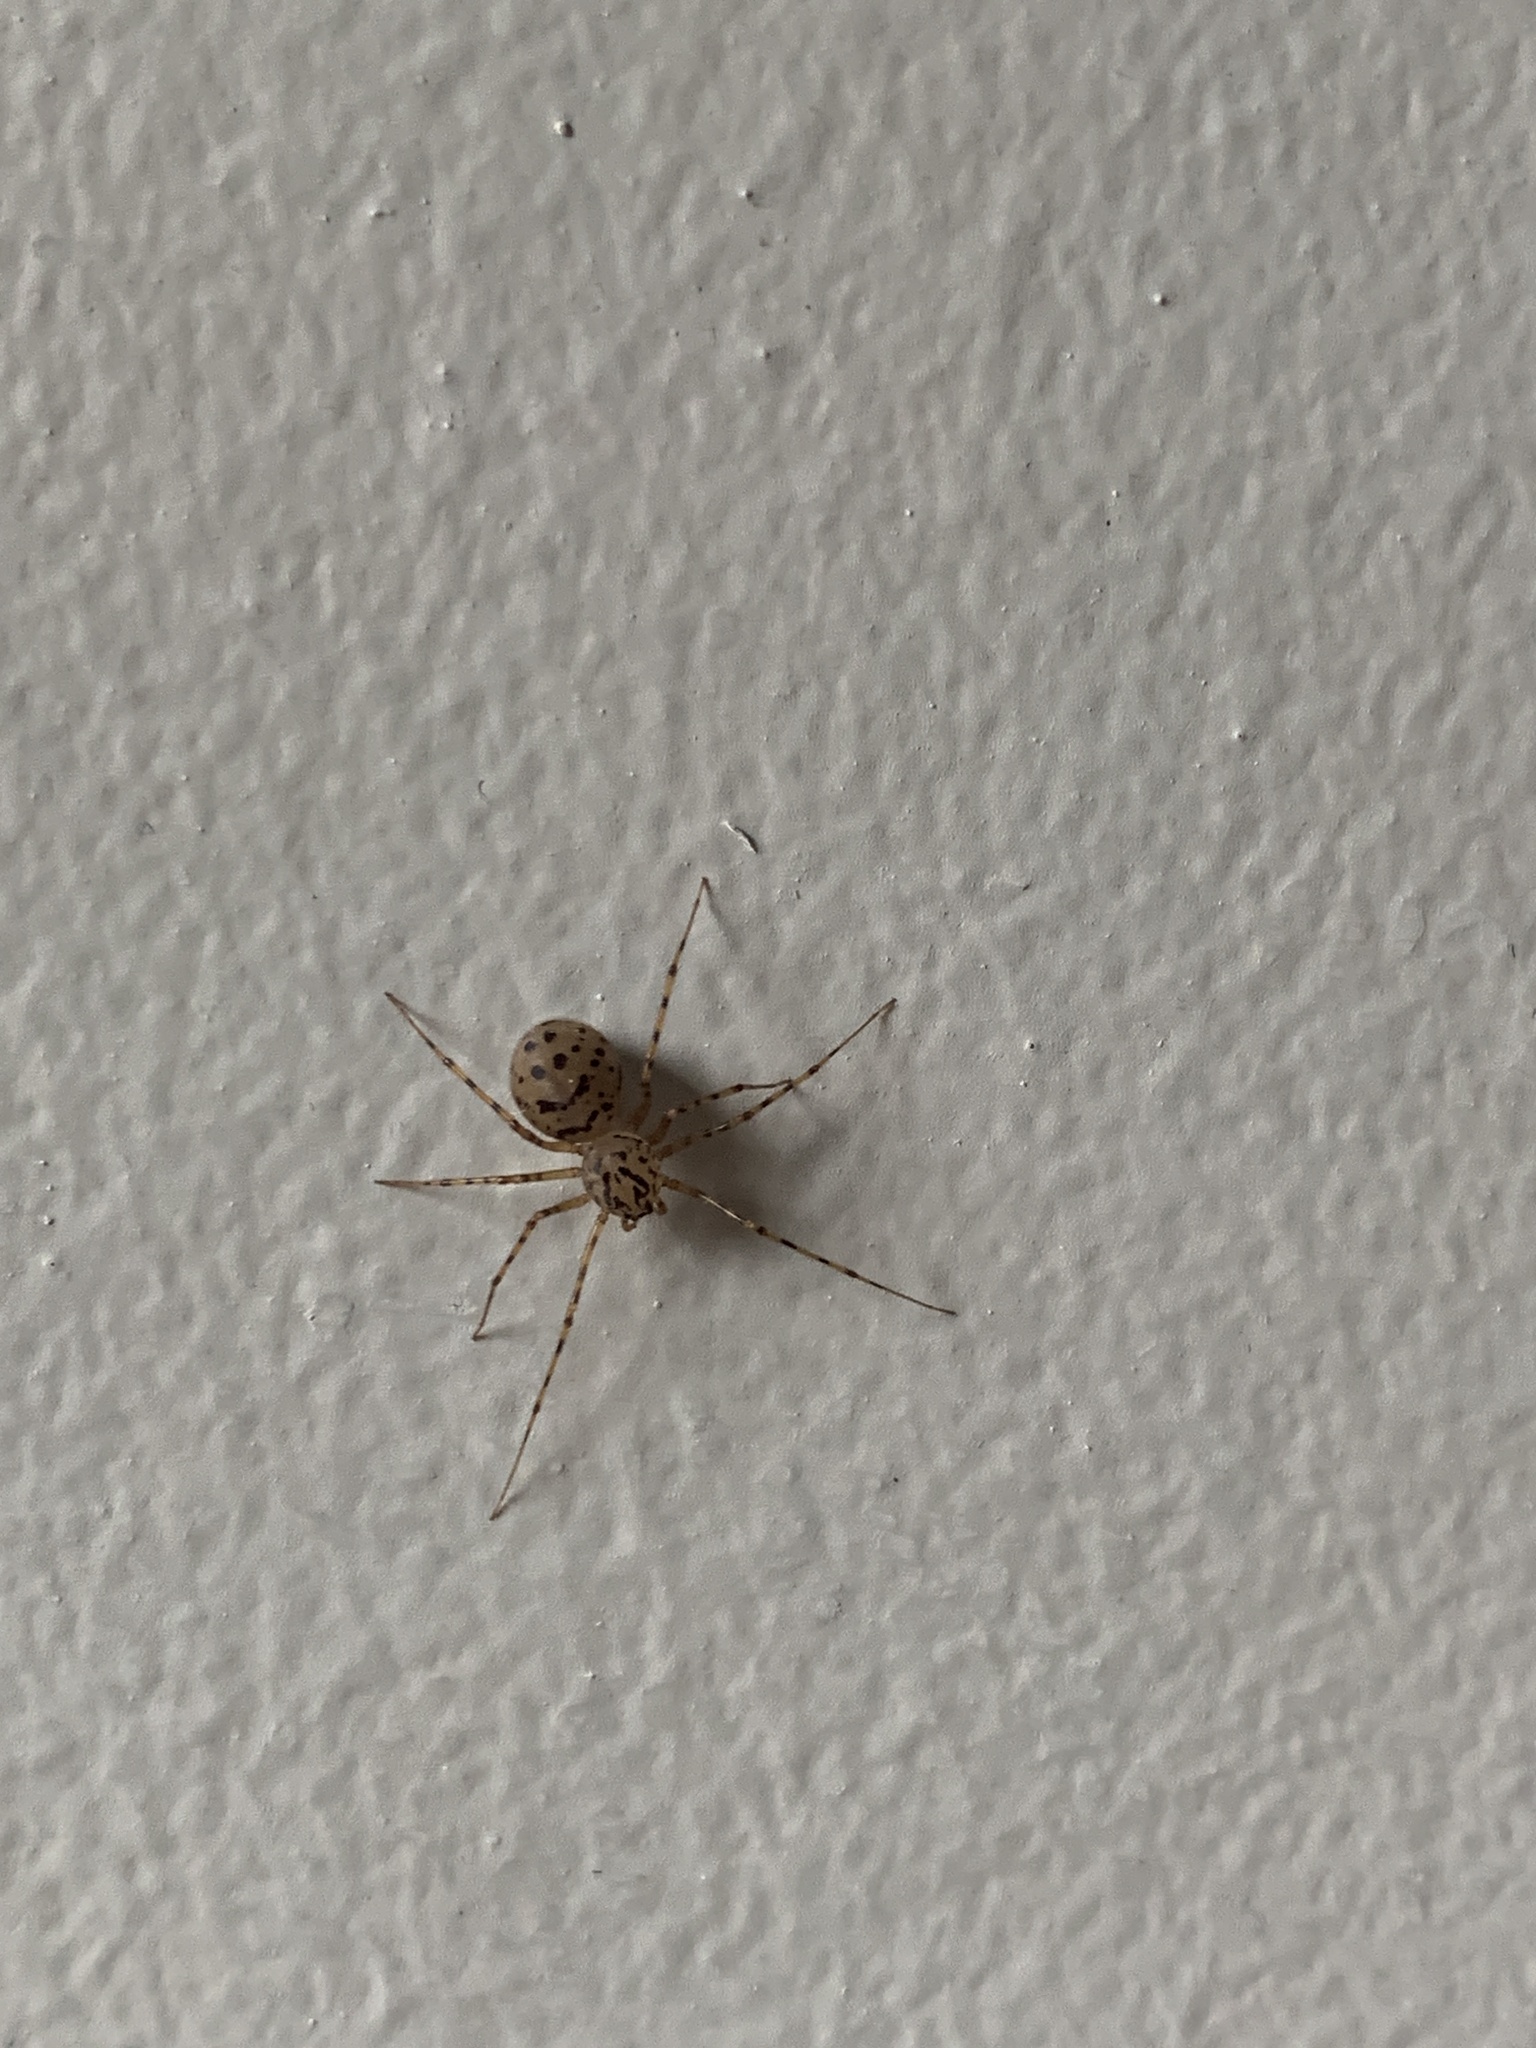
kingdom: Animalia
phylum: Arthropoda
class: Arachnida
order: Araneae
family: Scytodidae
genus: Scytodes
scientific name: Scytodes thoracica
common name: Spitting spider
